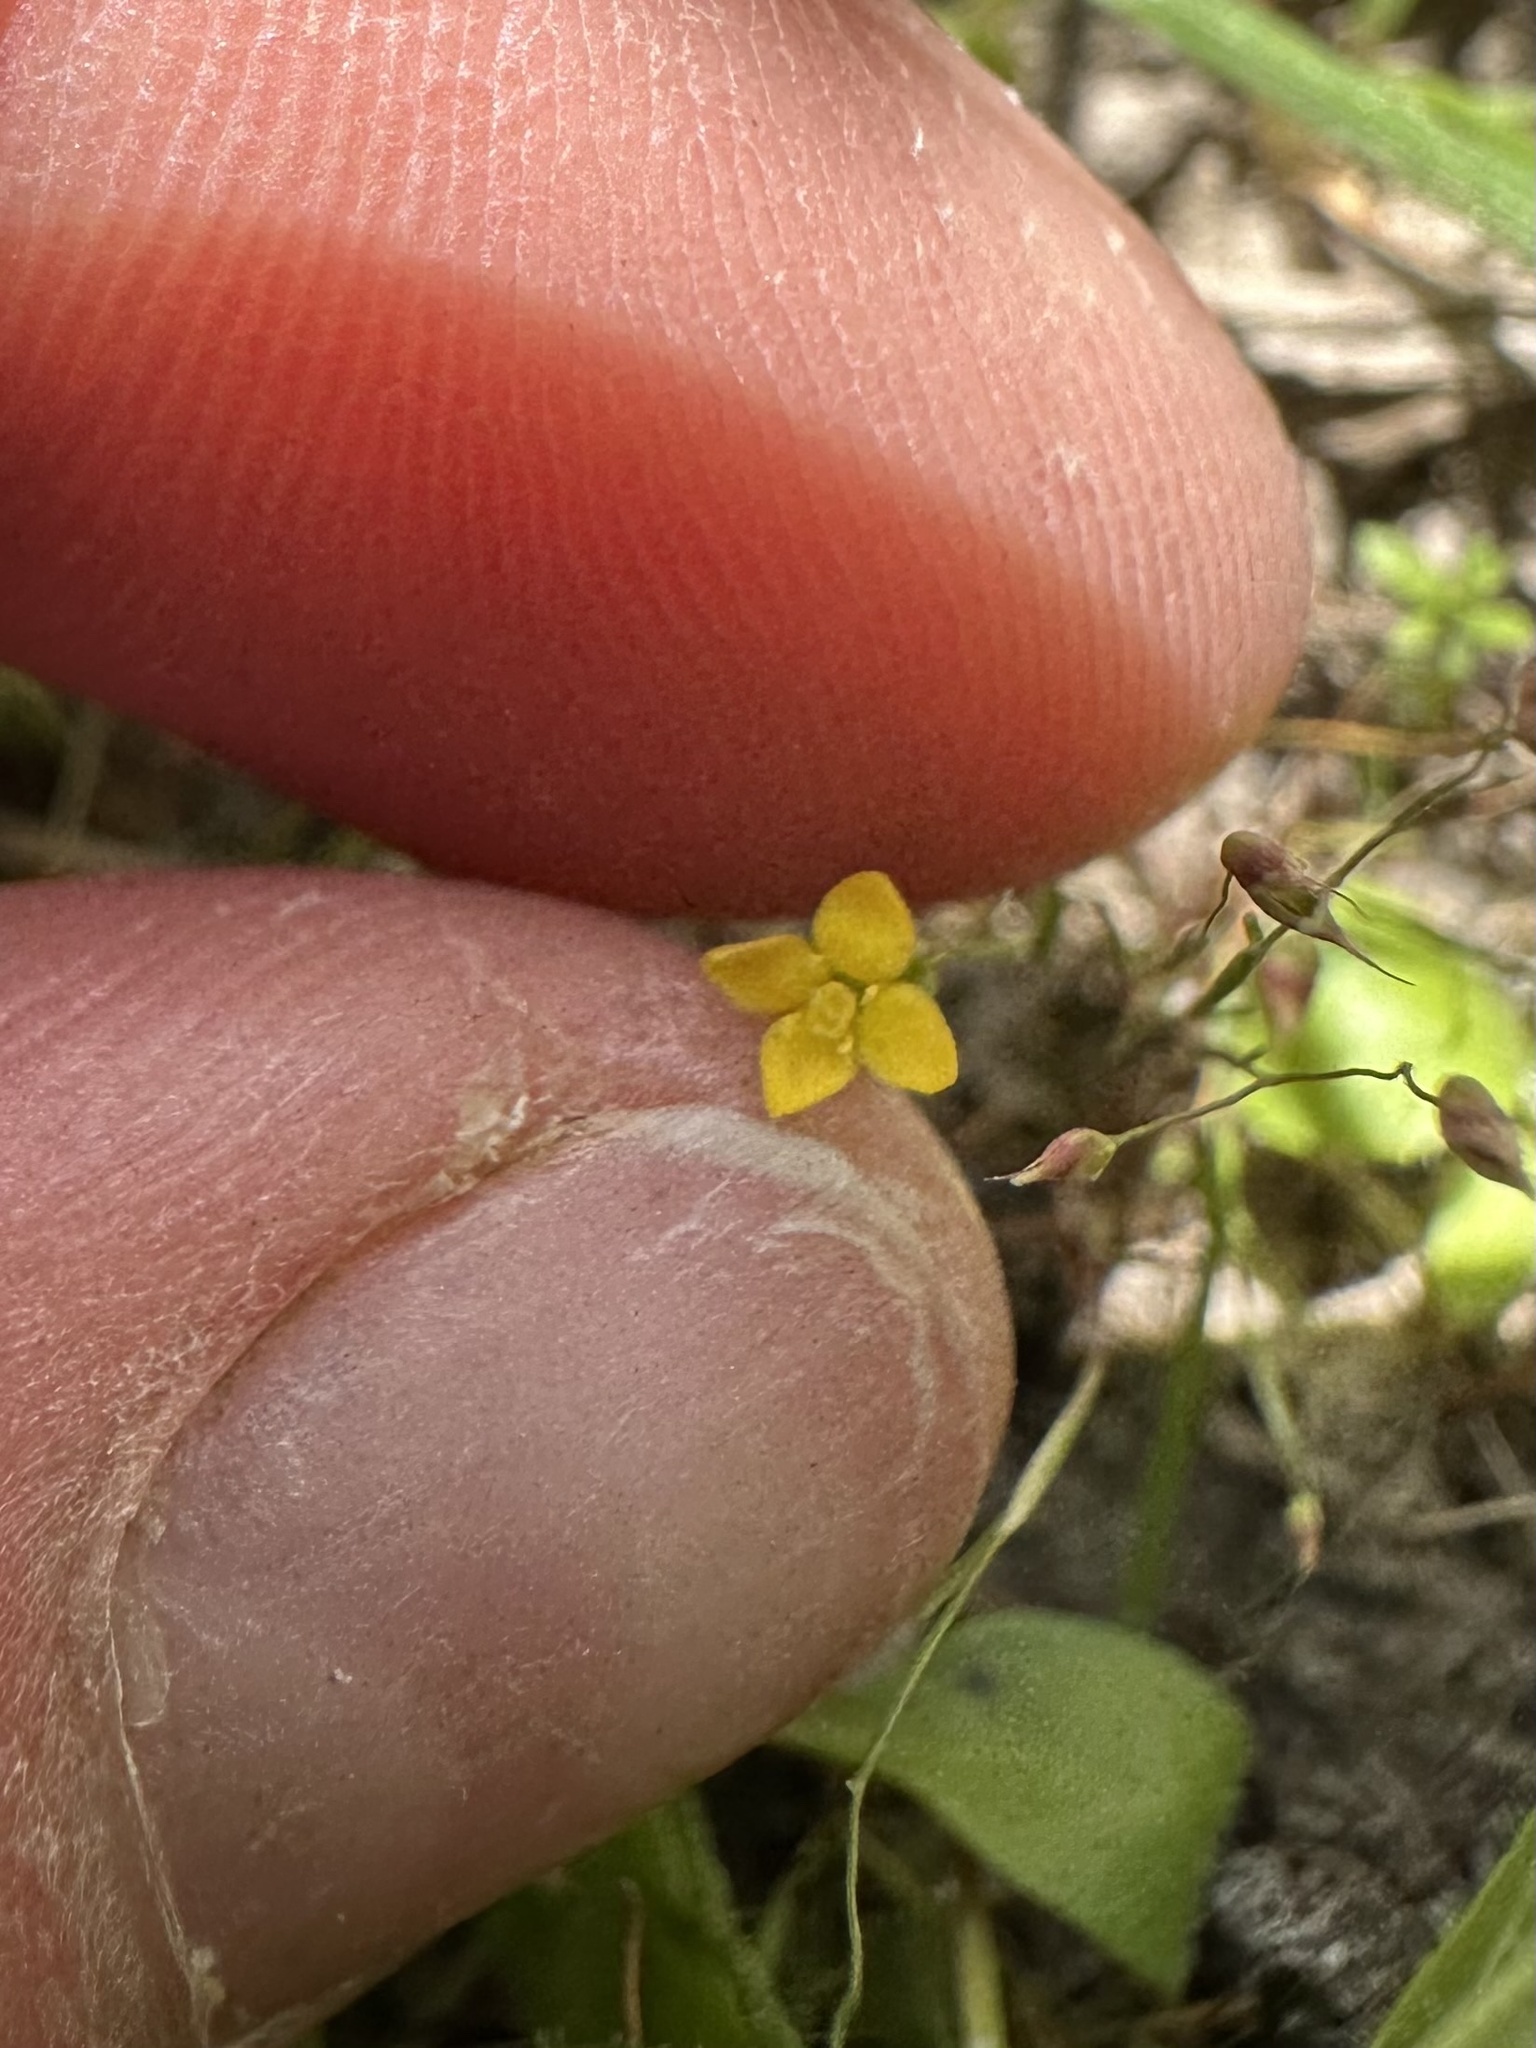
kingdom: Plantae
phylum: Tracheophyta
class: Magnoliopsida
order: Gentianales
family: Gentianaceae
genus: Microcala
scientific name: Microcala quadrangularis
